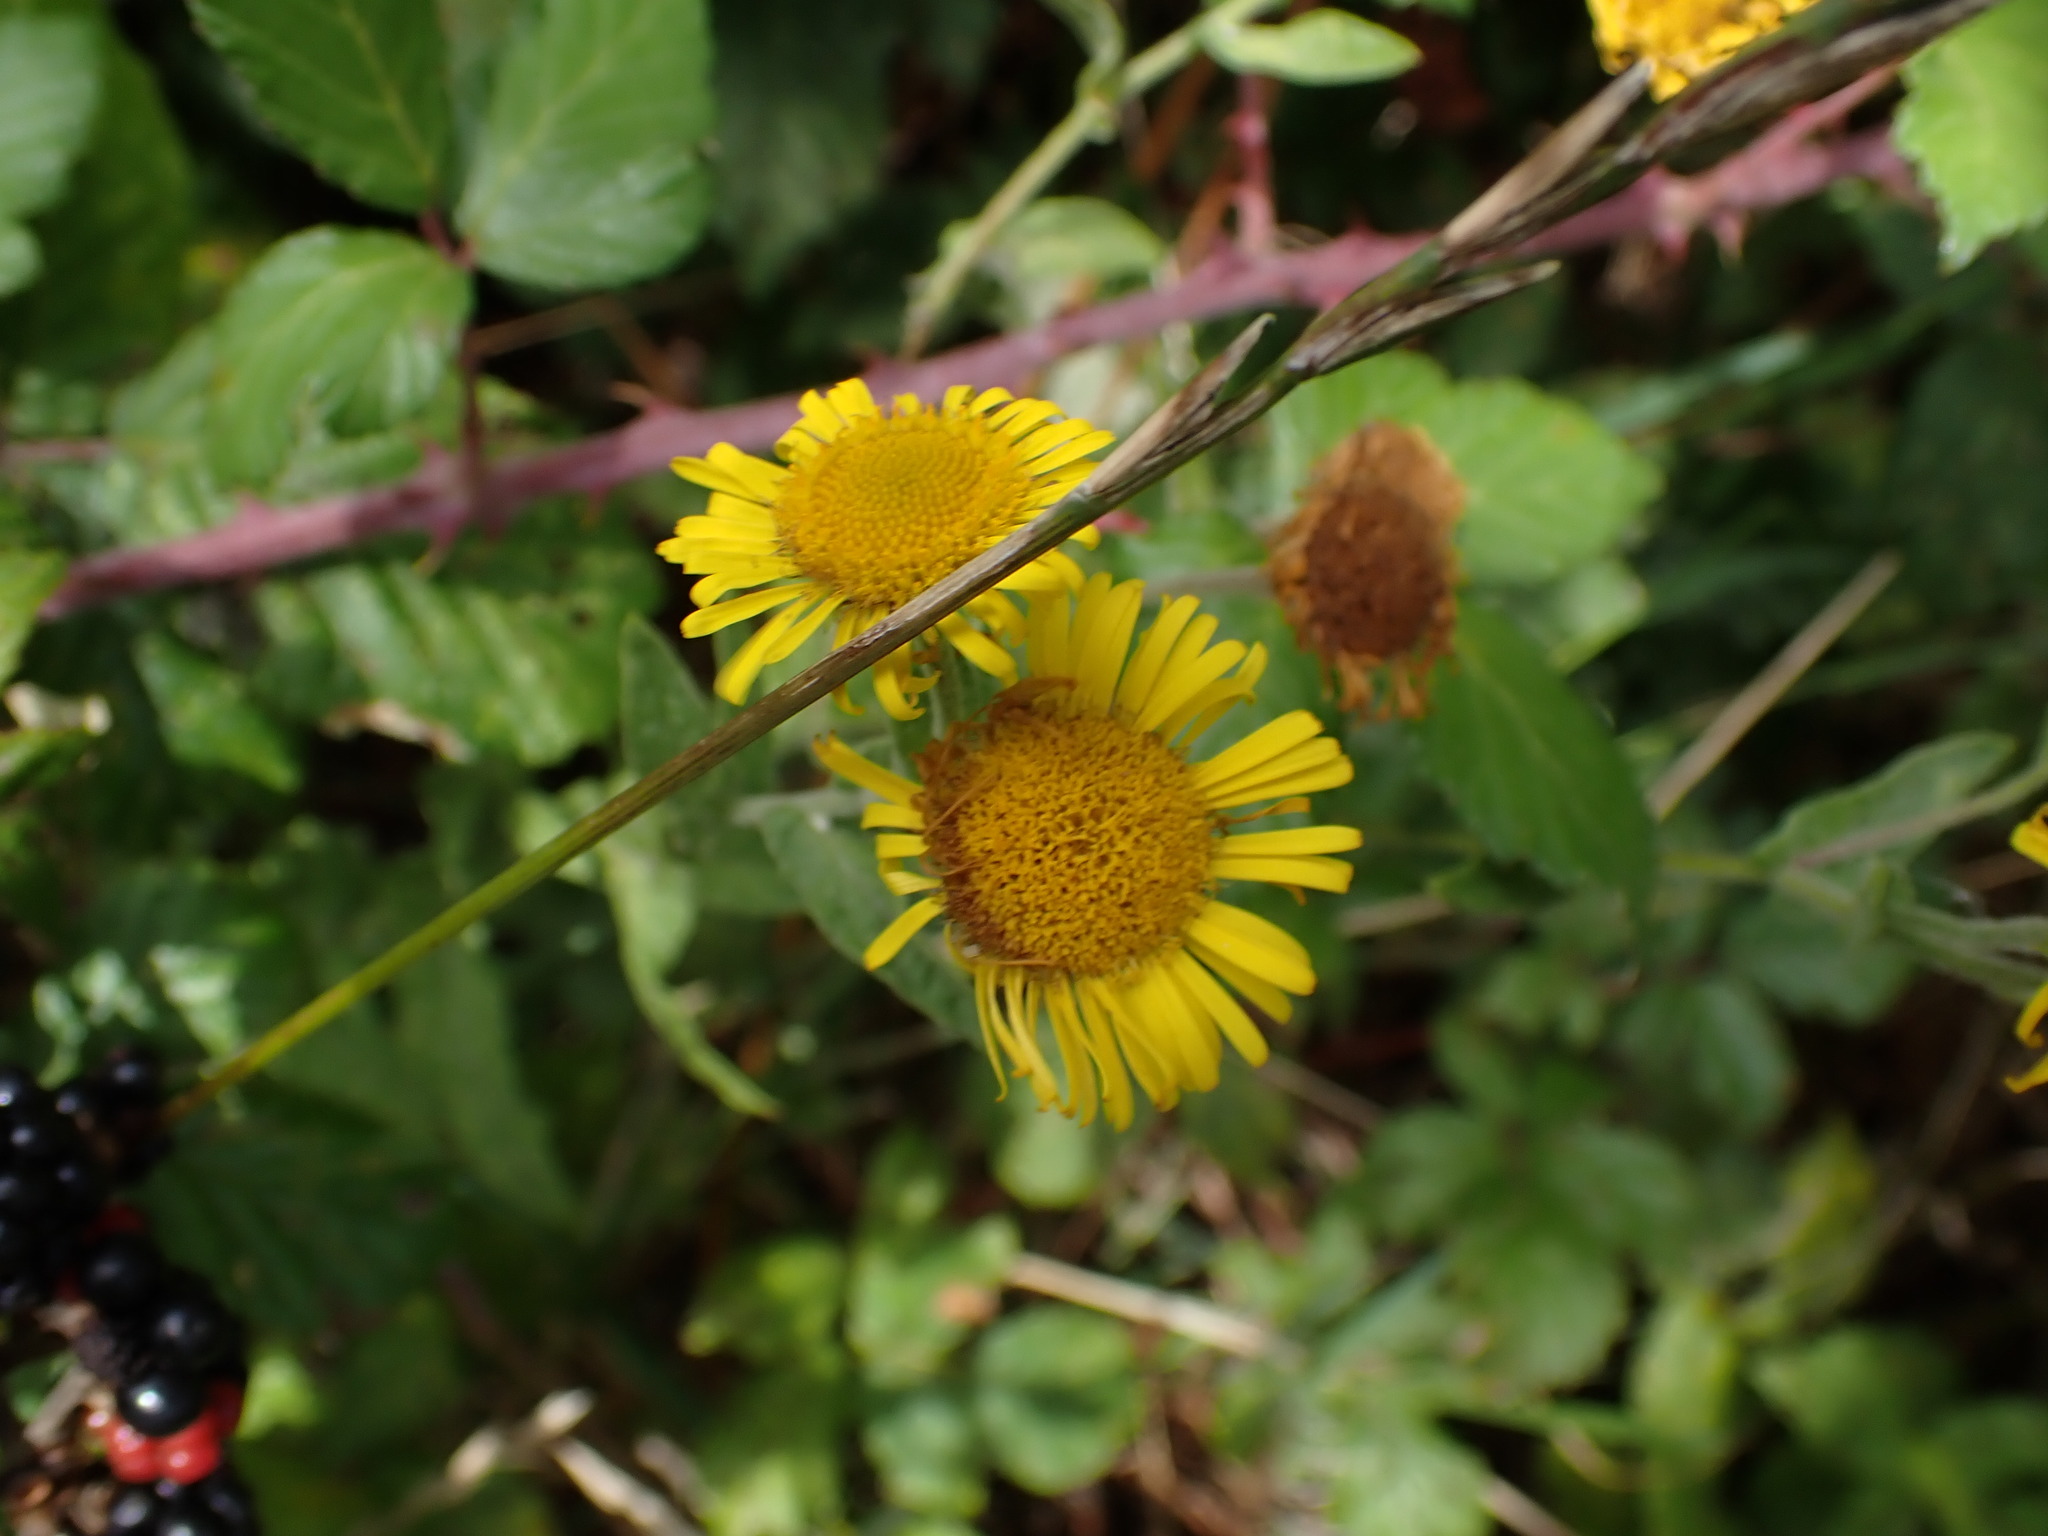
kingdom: Plantae
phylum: Tracheophyta
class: Magnoliopsida
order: Asterales
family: Asteraceae
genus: Pulicaria
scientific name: Pulicaria dysenterica
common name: Common fleabane
